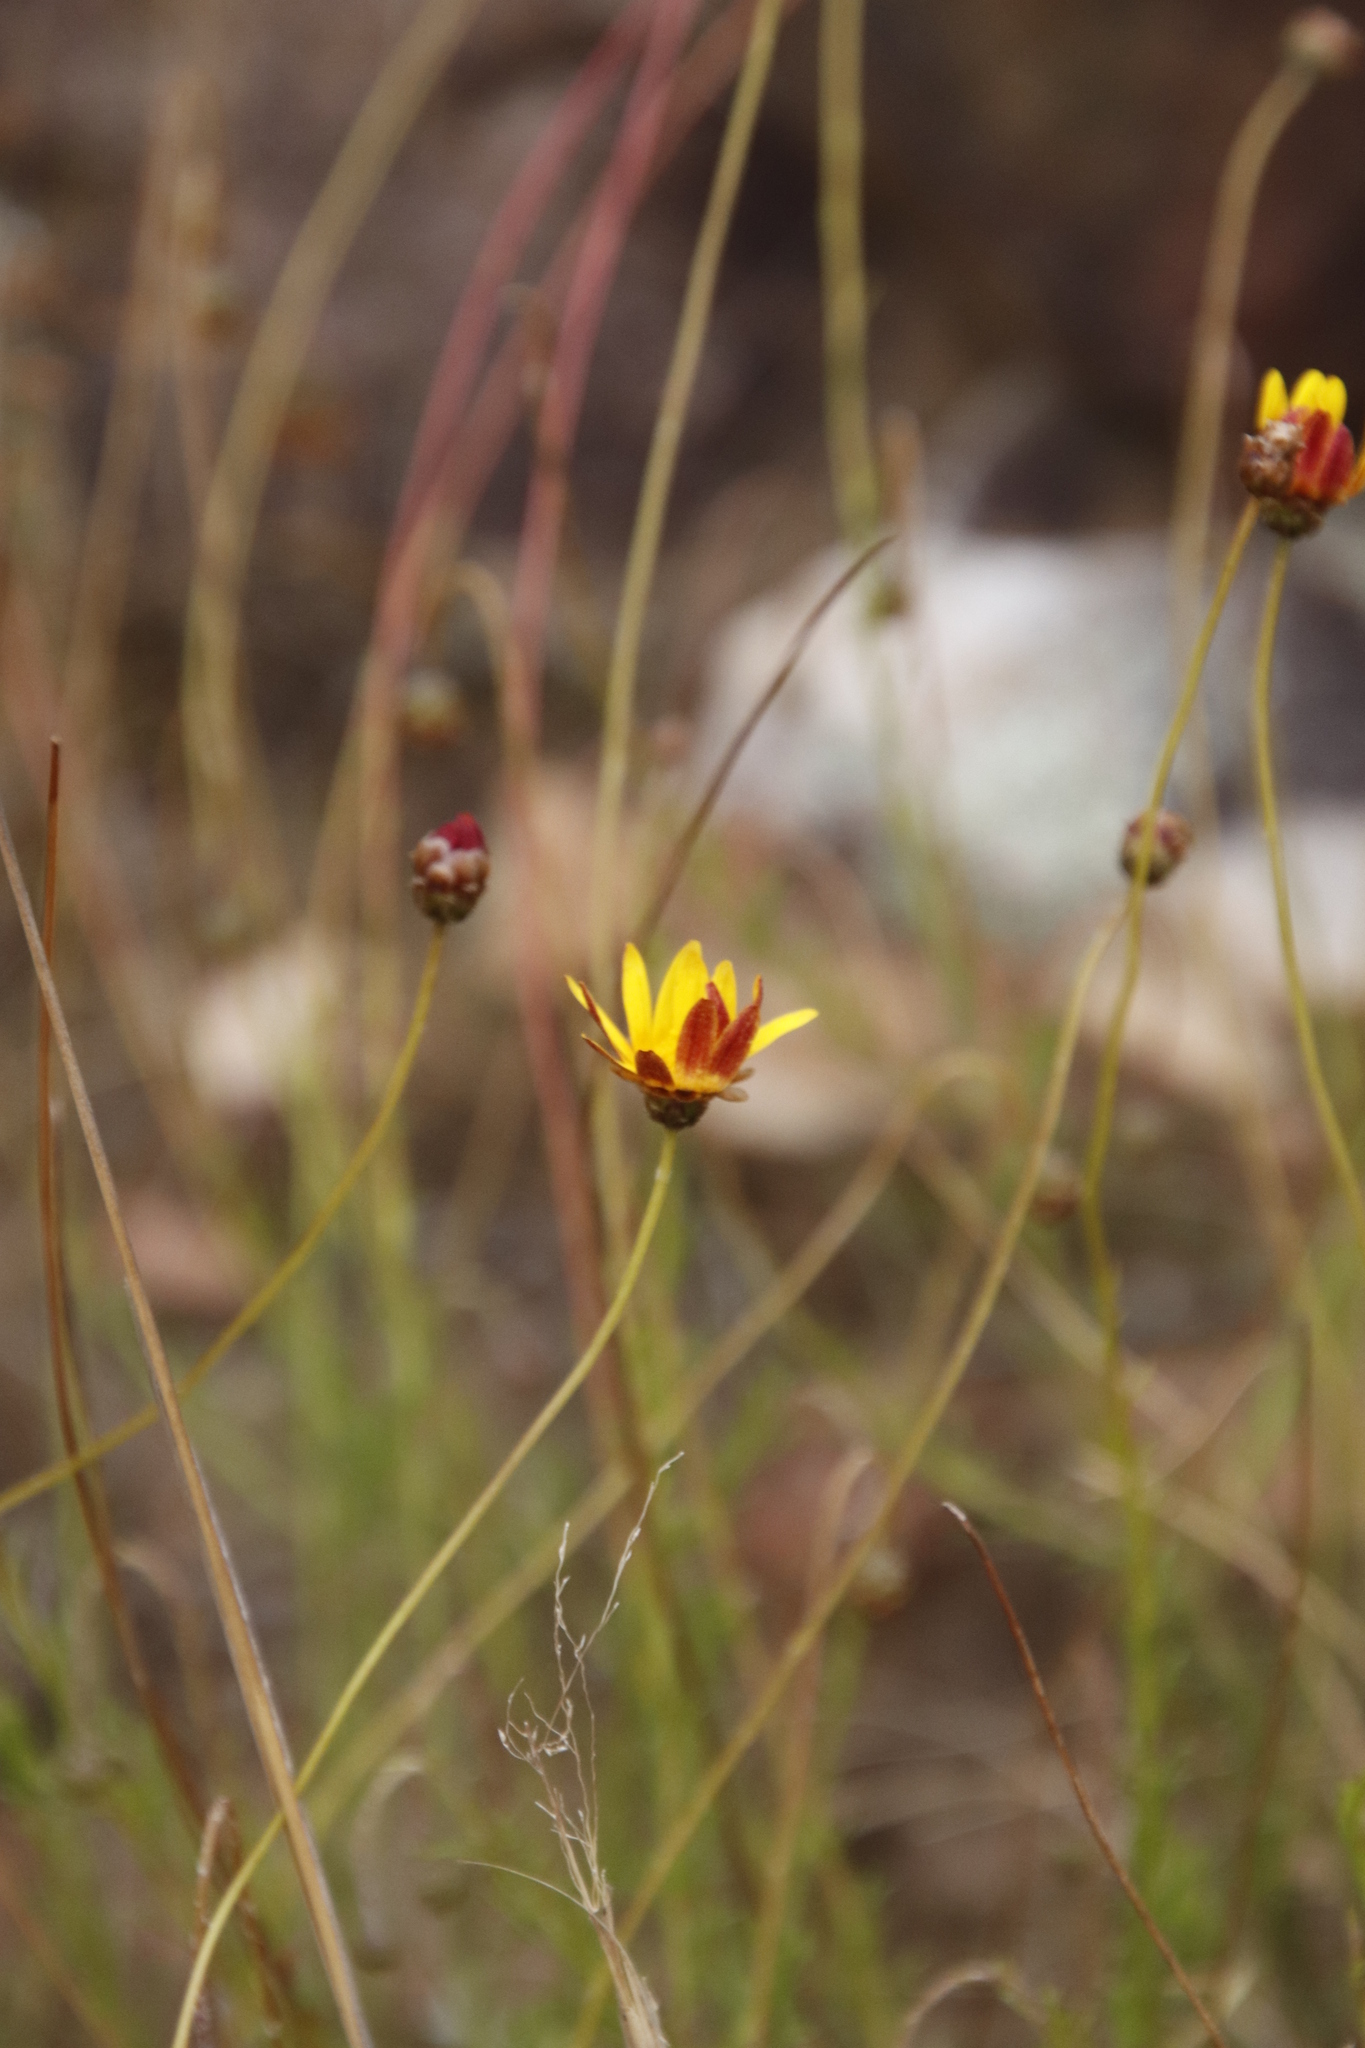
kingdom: Plantae
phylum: Tracheophyta
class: Magnoliopsida
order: Asterales
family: Asteraceae
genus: Ursinia
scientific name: Ursinia heterodonta
